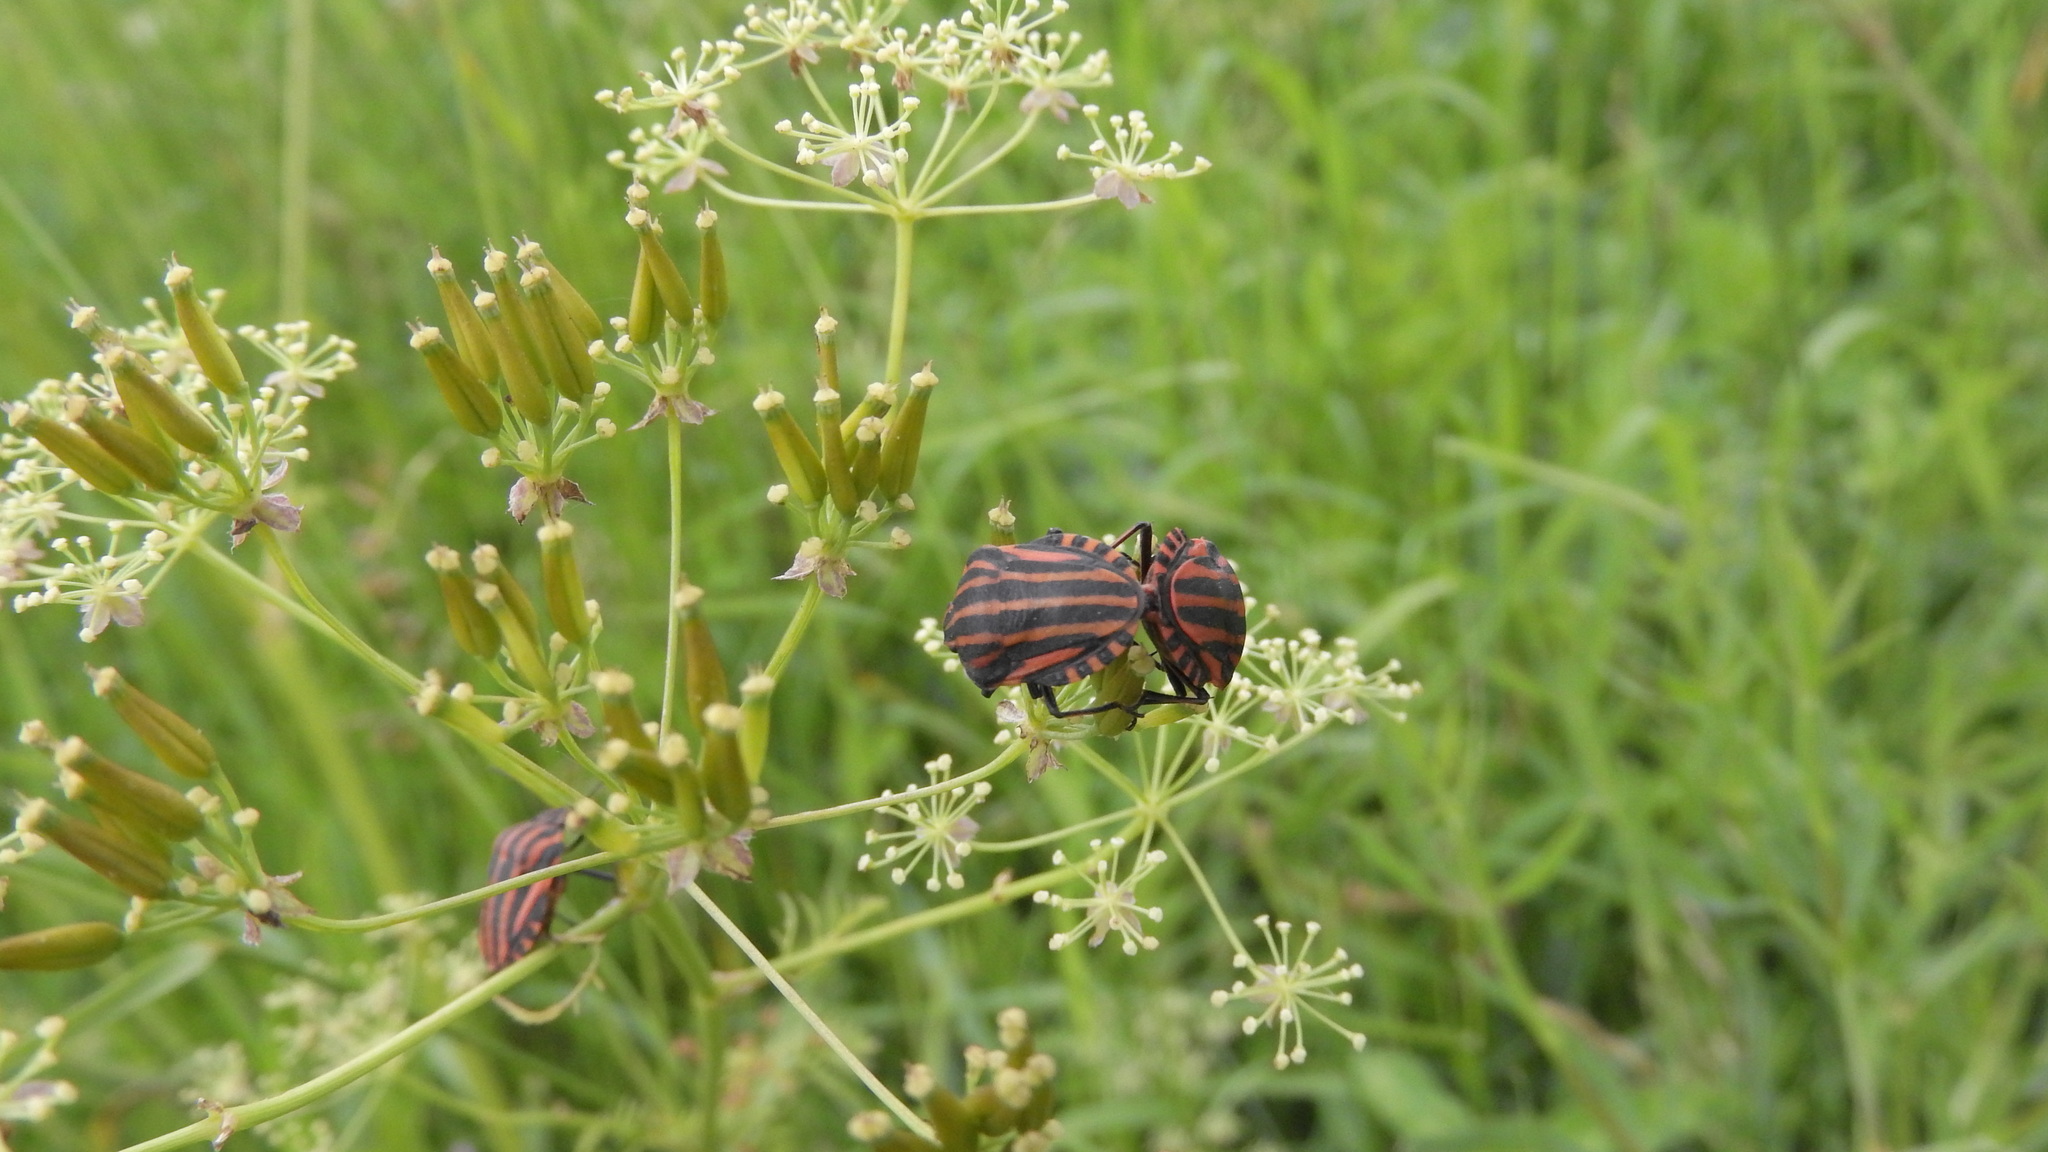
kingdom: Animalia
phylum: Arthropoda
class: Insecta
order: Hemiptera
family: Pentatomidae
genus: Graphosoma
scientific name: Graphosoma italicum
